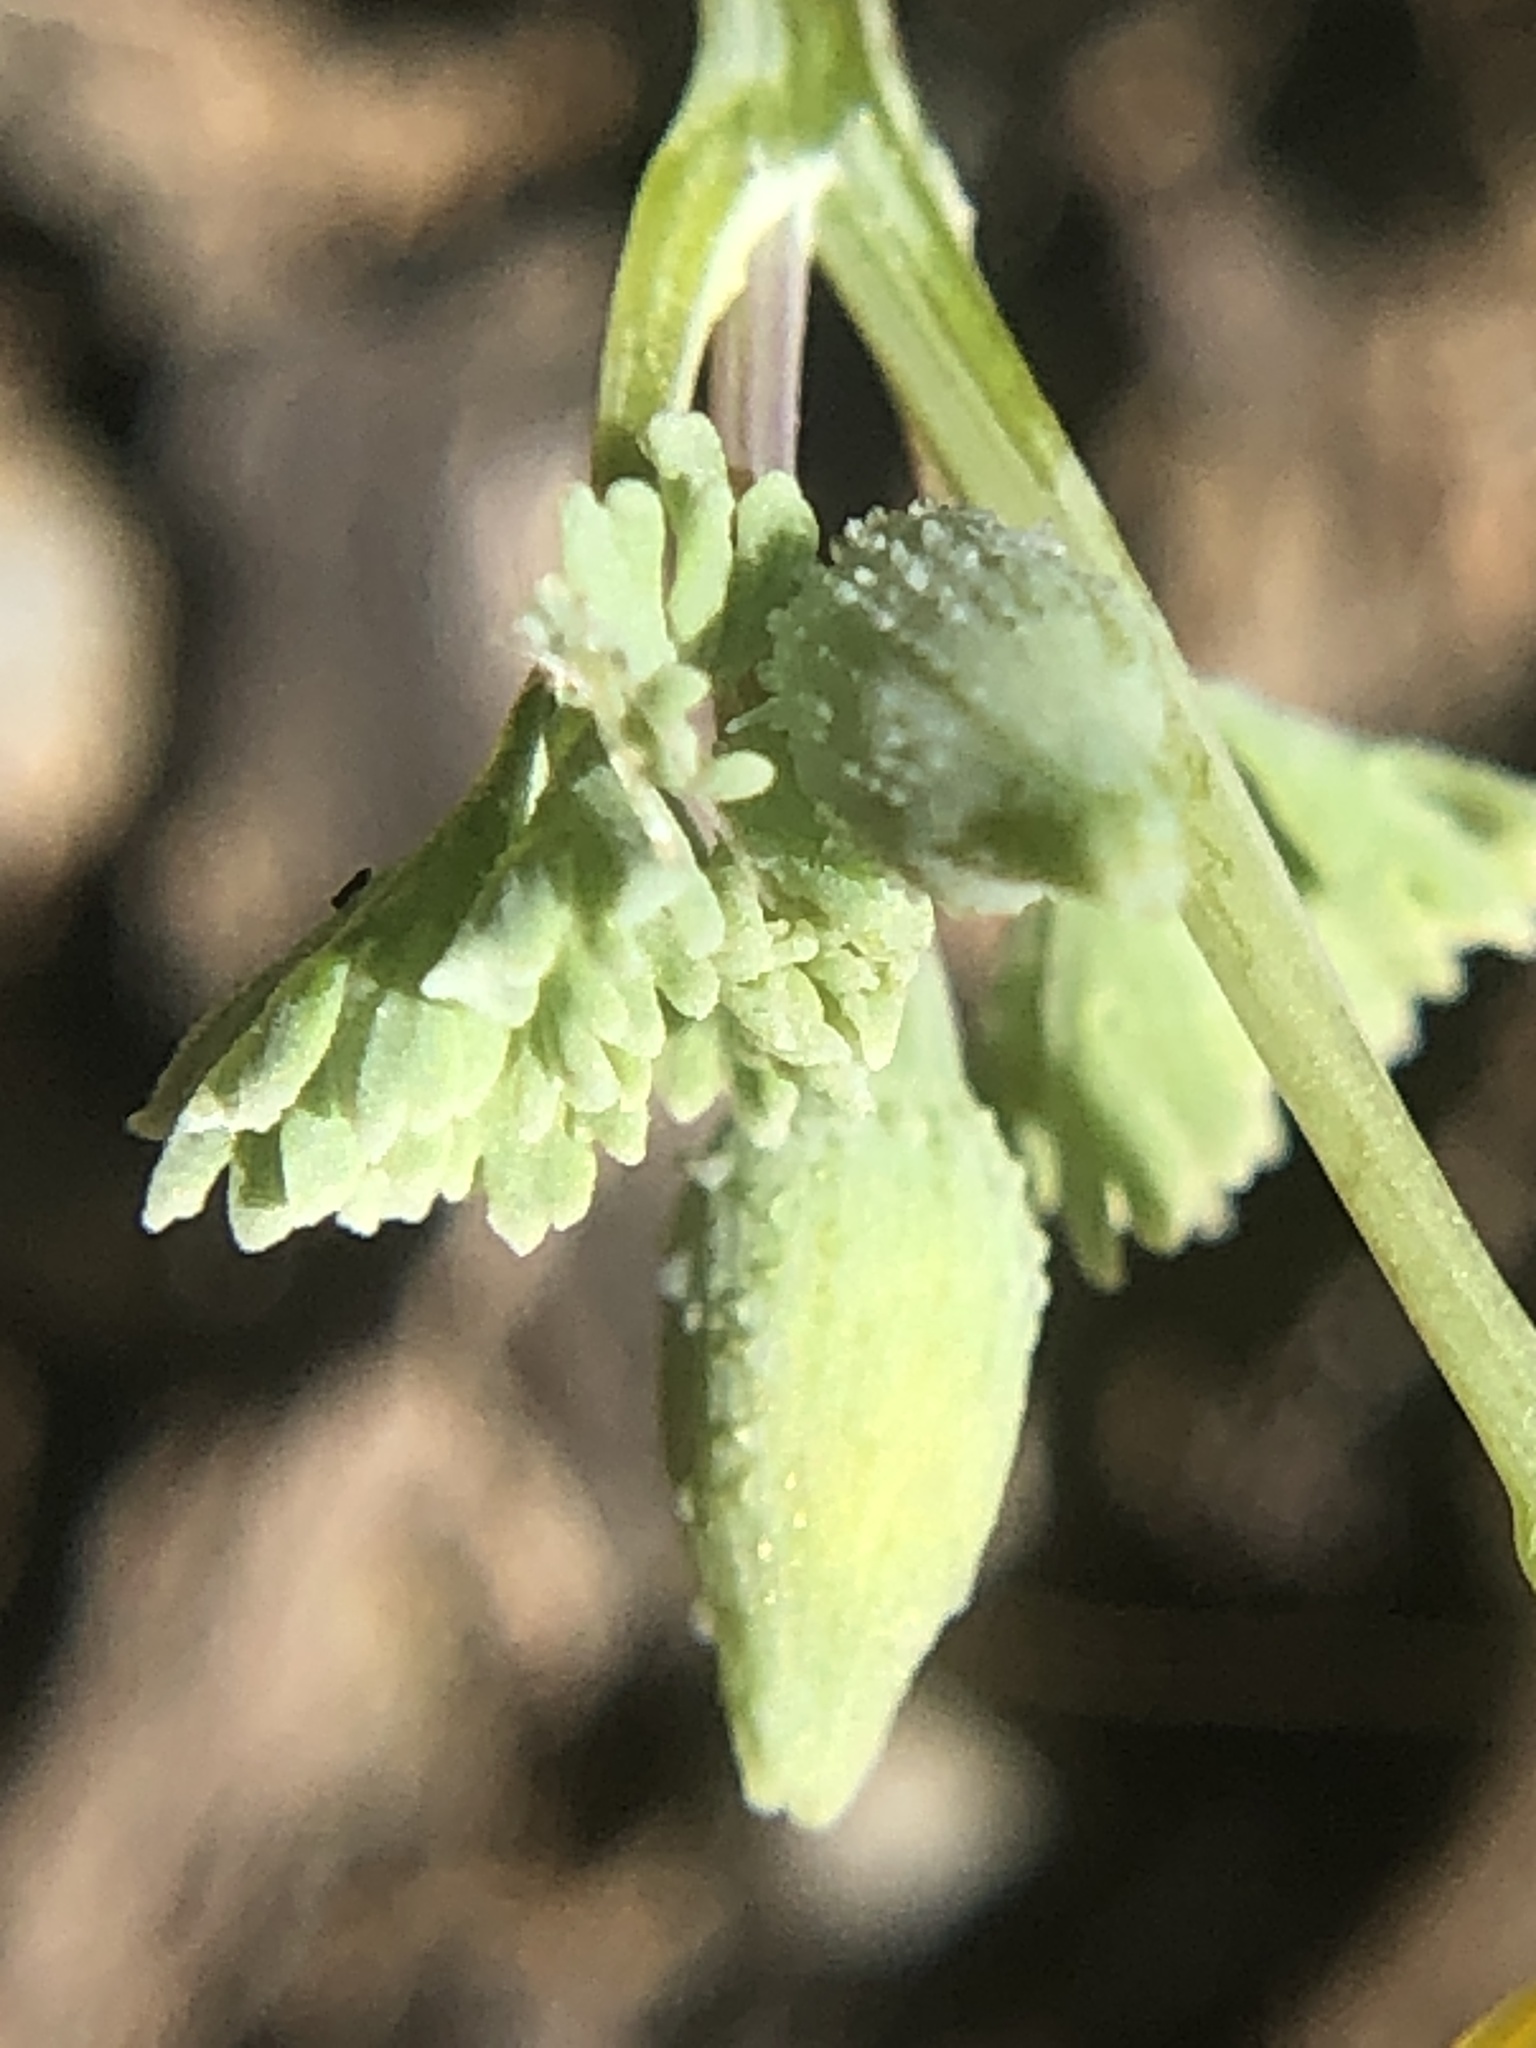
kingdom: Plantae
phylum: Tracheophyta
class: Magnoliopsida
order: Ranunculales
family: Papaveraceae
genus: Eschscholzia
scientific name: Eschscholzia hypecoides
